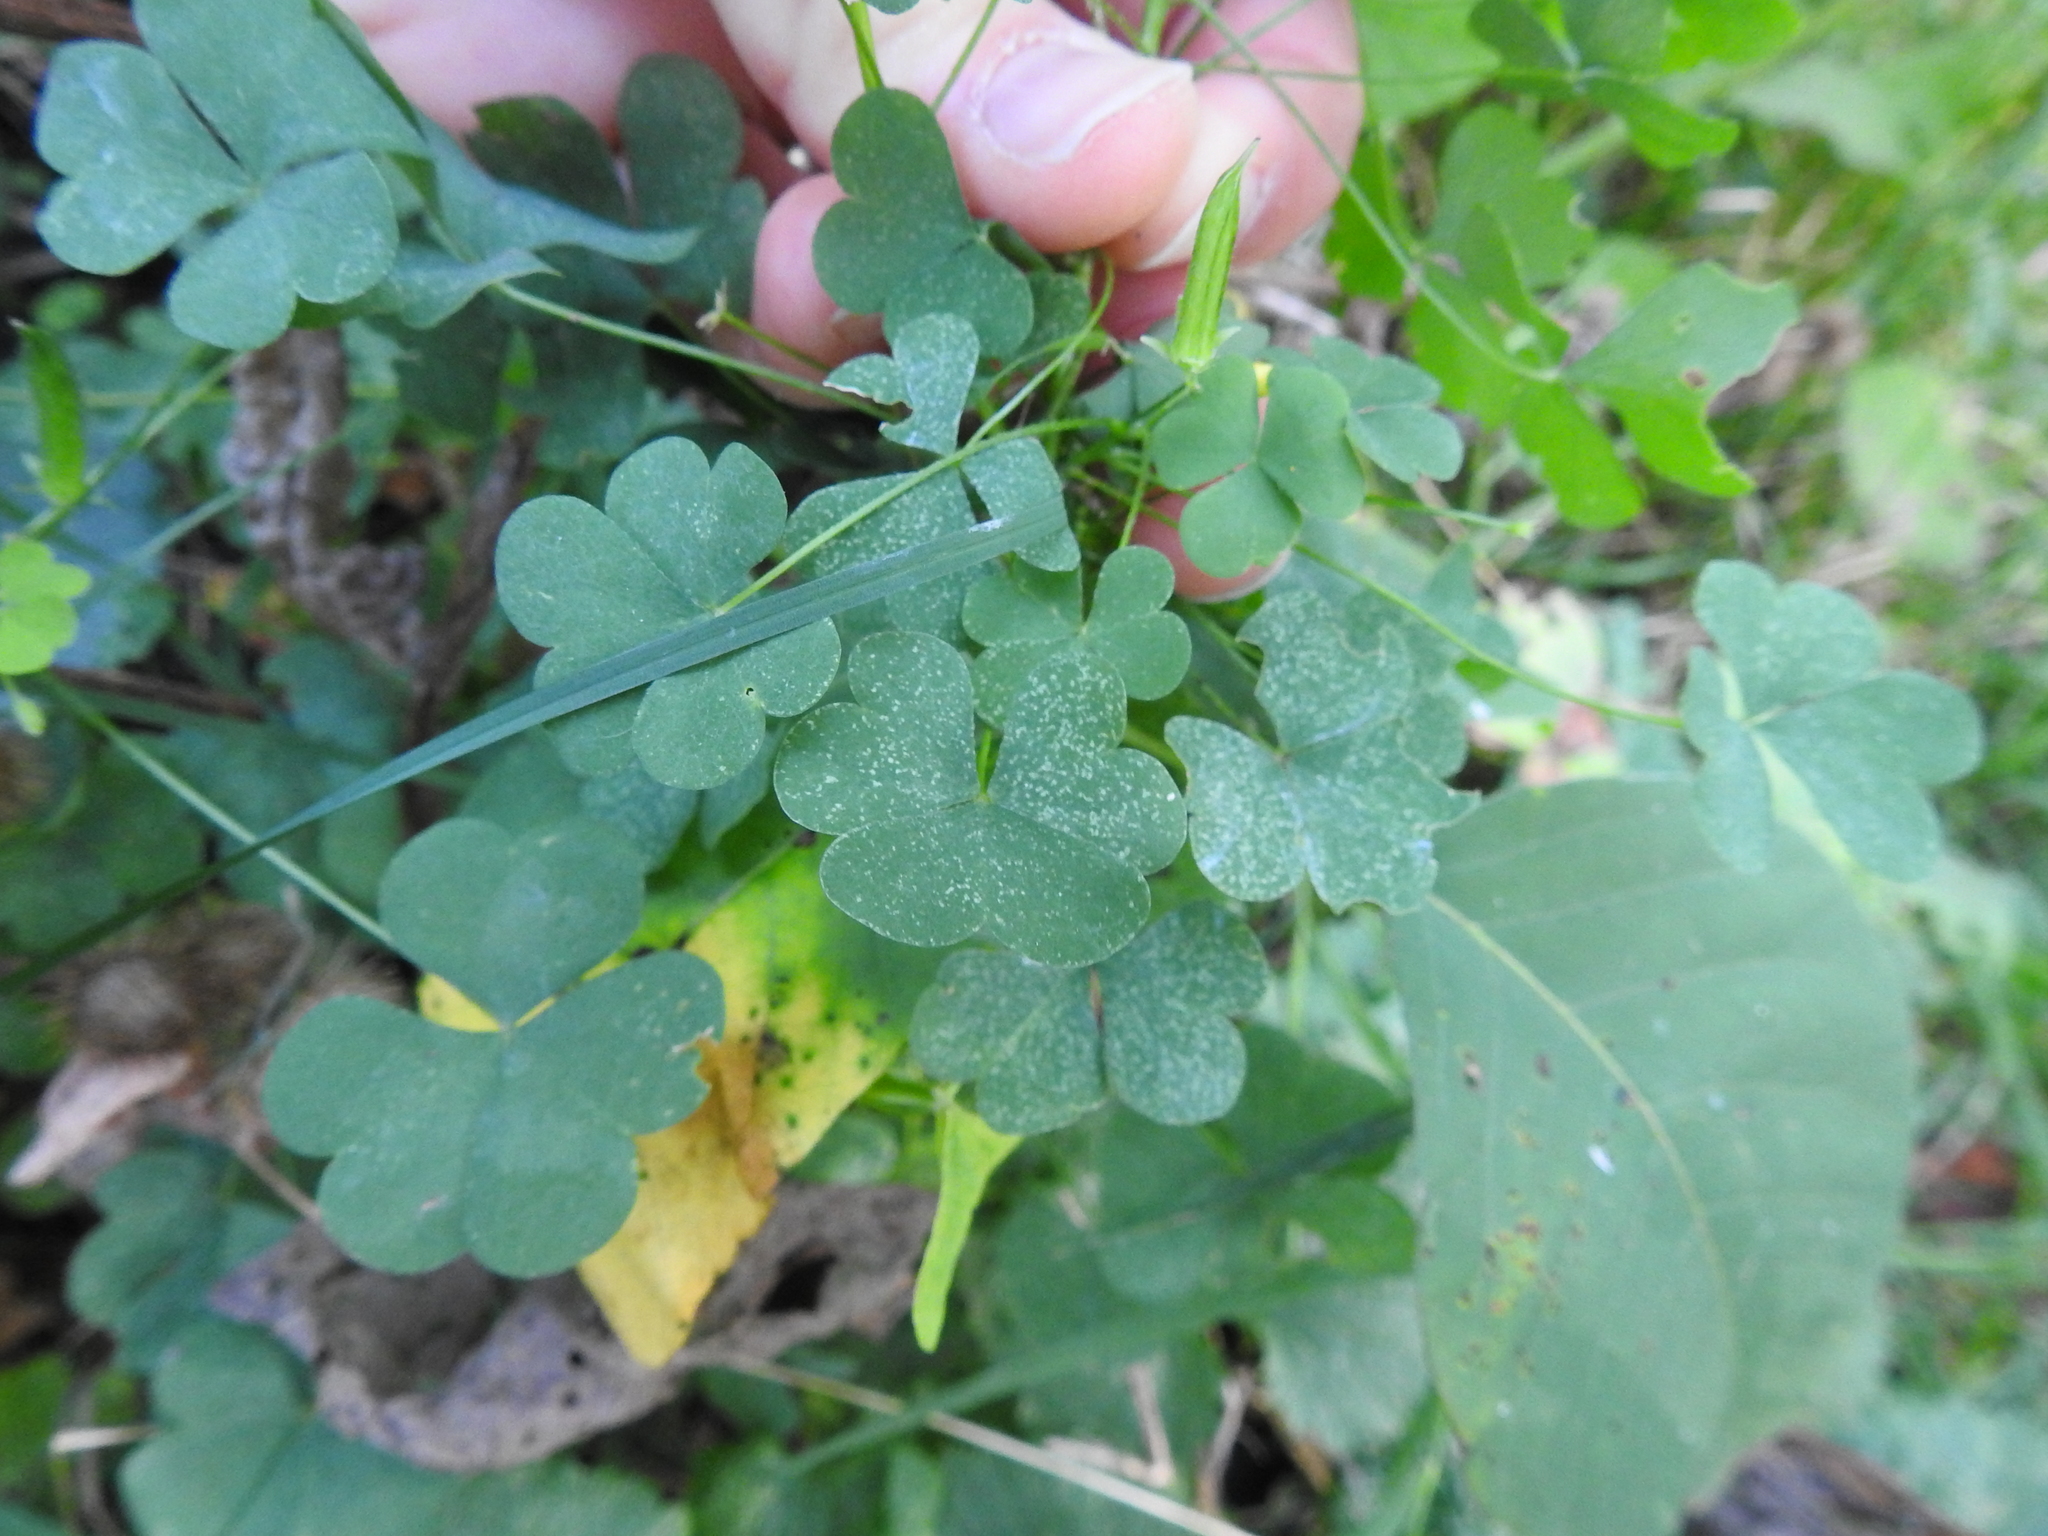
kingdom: Plantae
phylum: Tracheophyta
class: Magnoliopsida
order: Oxalidales
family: Oxalidaceae
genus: Oxalis
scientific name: Oxalis stricta
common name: Upright yellow-sorrel
